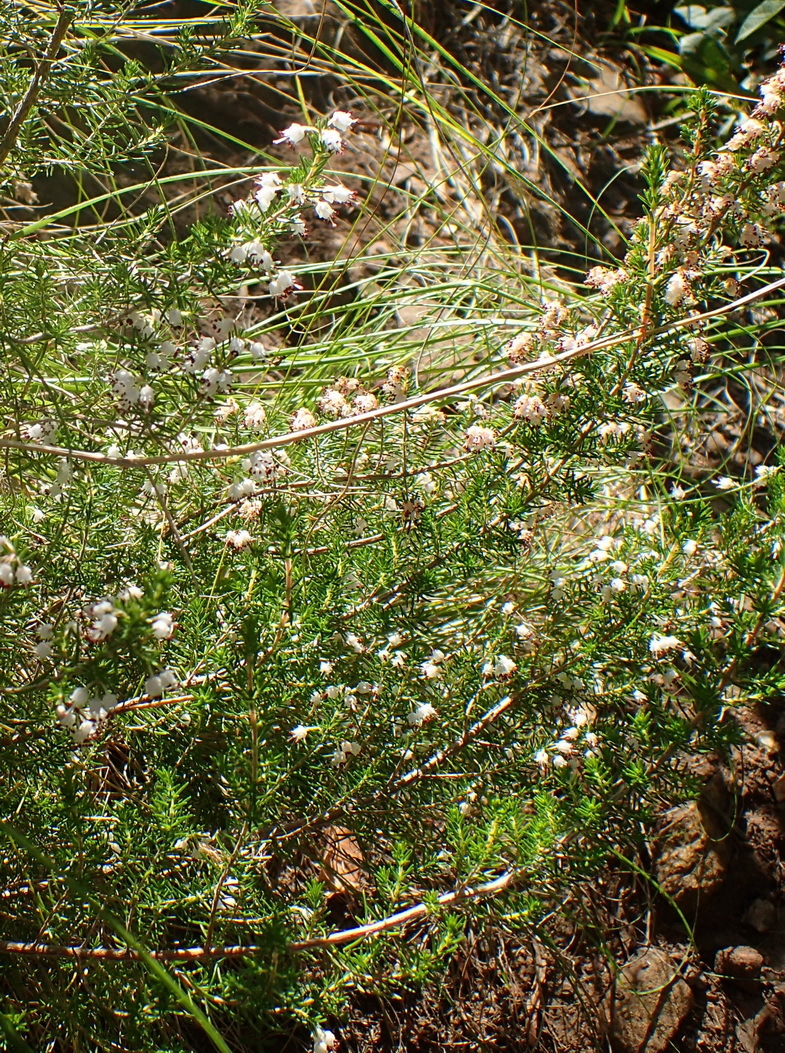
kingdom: Plantae
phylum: Tracheophyta
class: Magnoliopsida
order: Ericales
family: Ericaceae
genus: Erica
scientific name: Erica demissa
